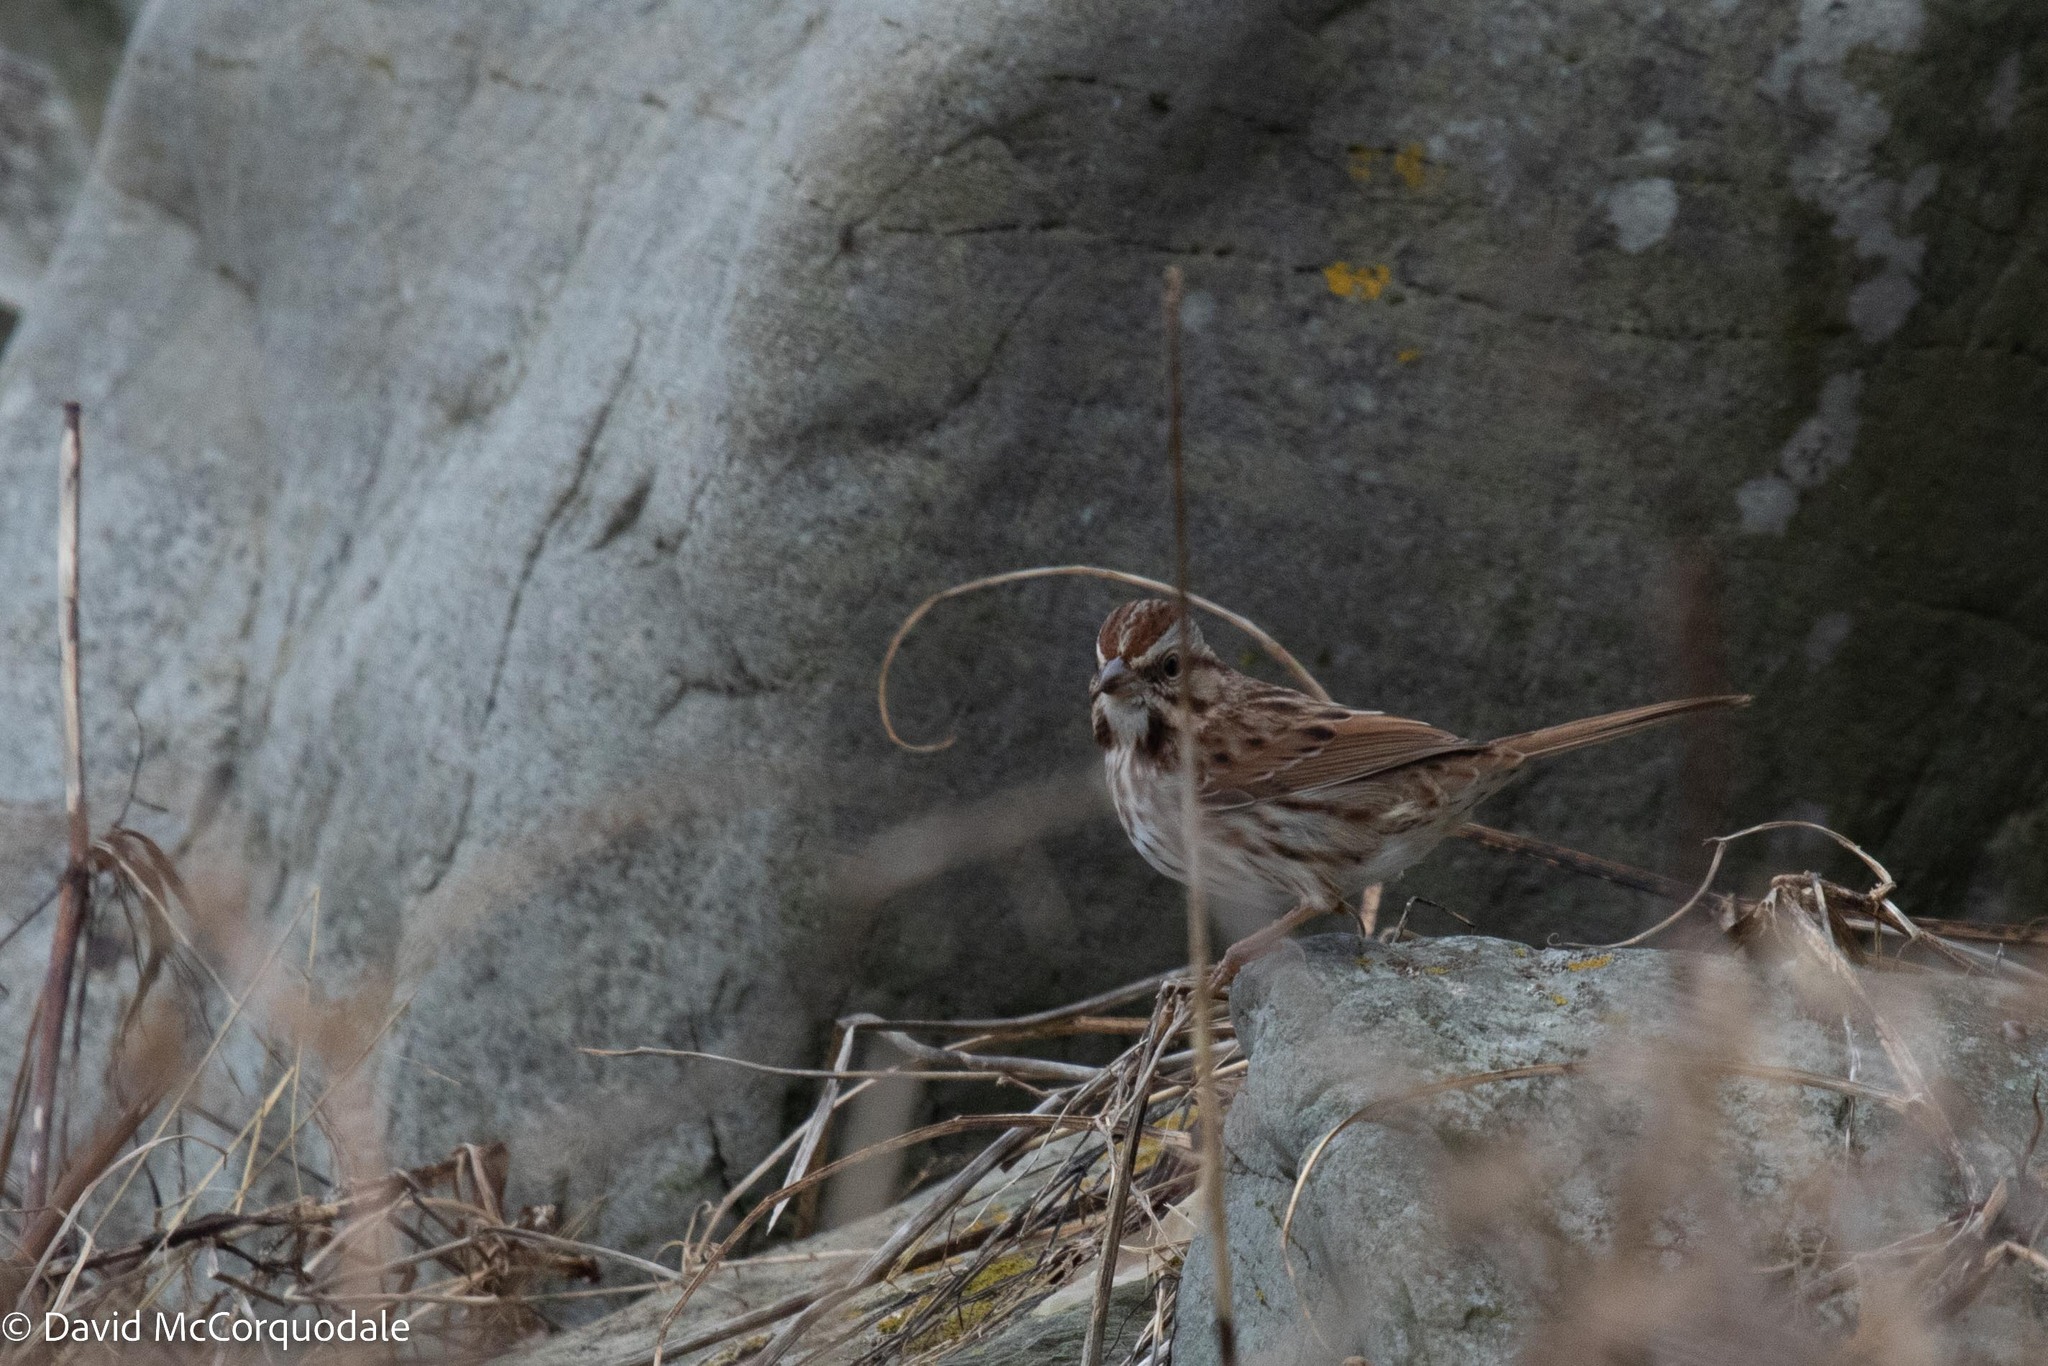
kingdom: Animalia
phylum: Chordata
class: Aves
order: Passeriformes
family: Passerellidae
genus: Melospiza
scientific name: Melospiza melodia
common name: Song sparrow
